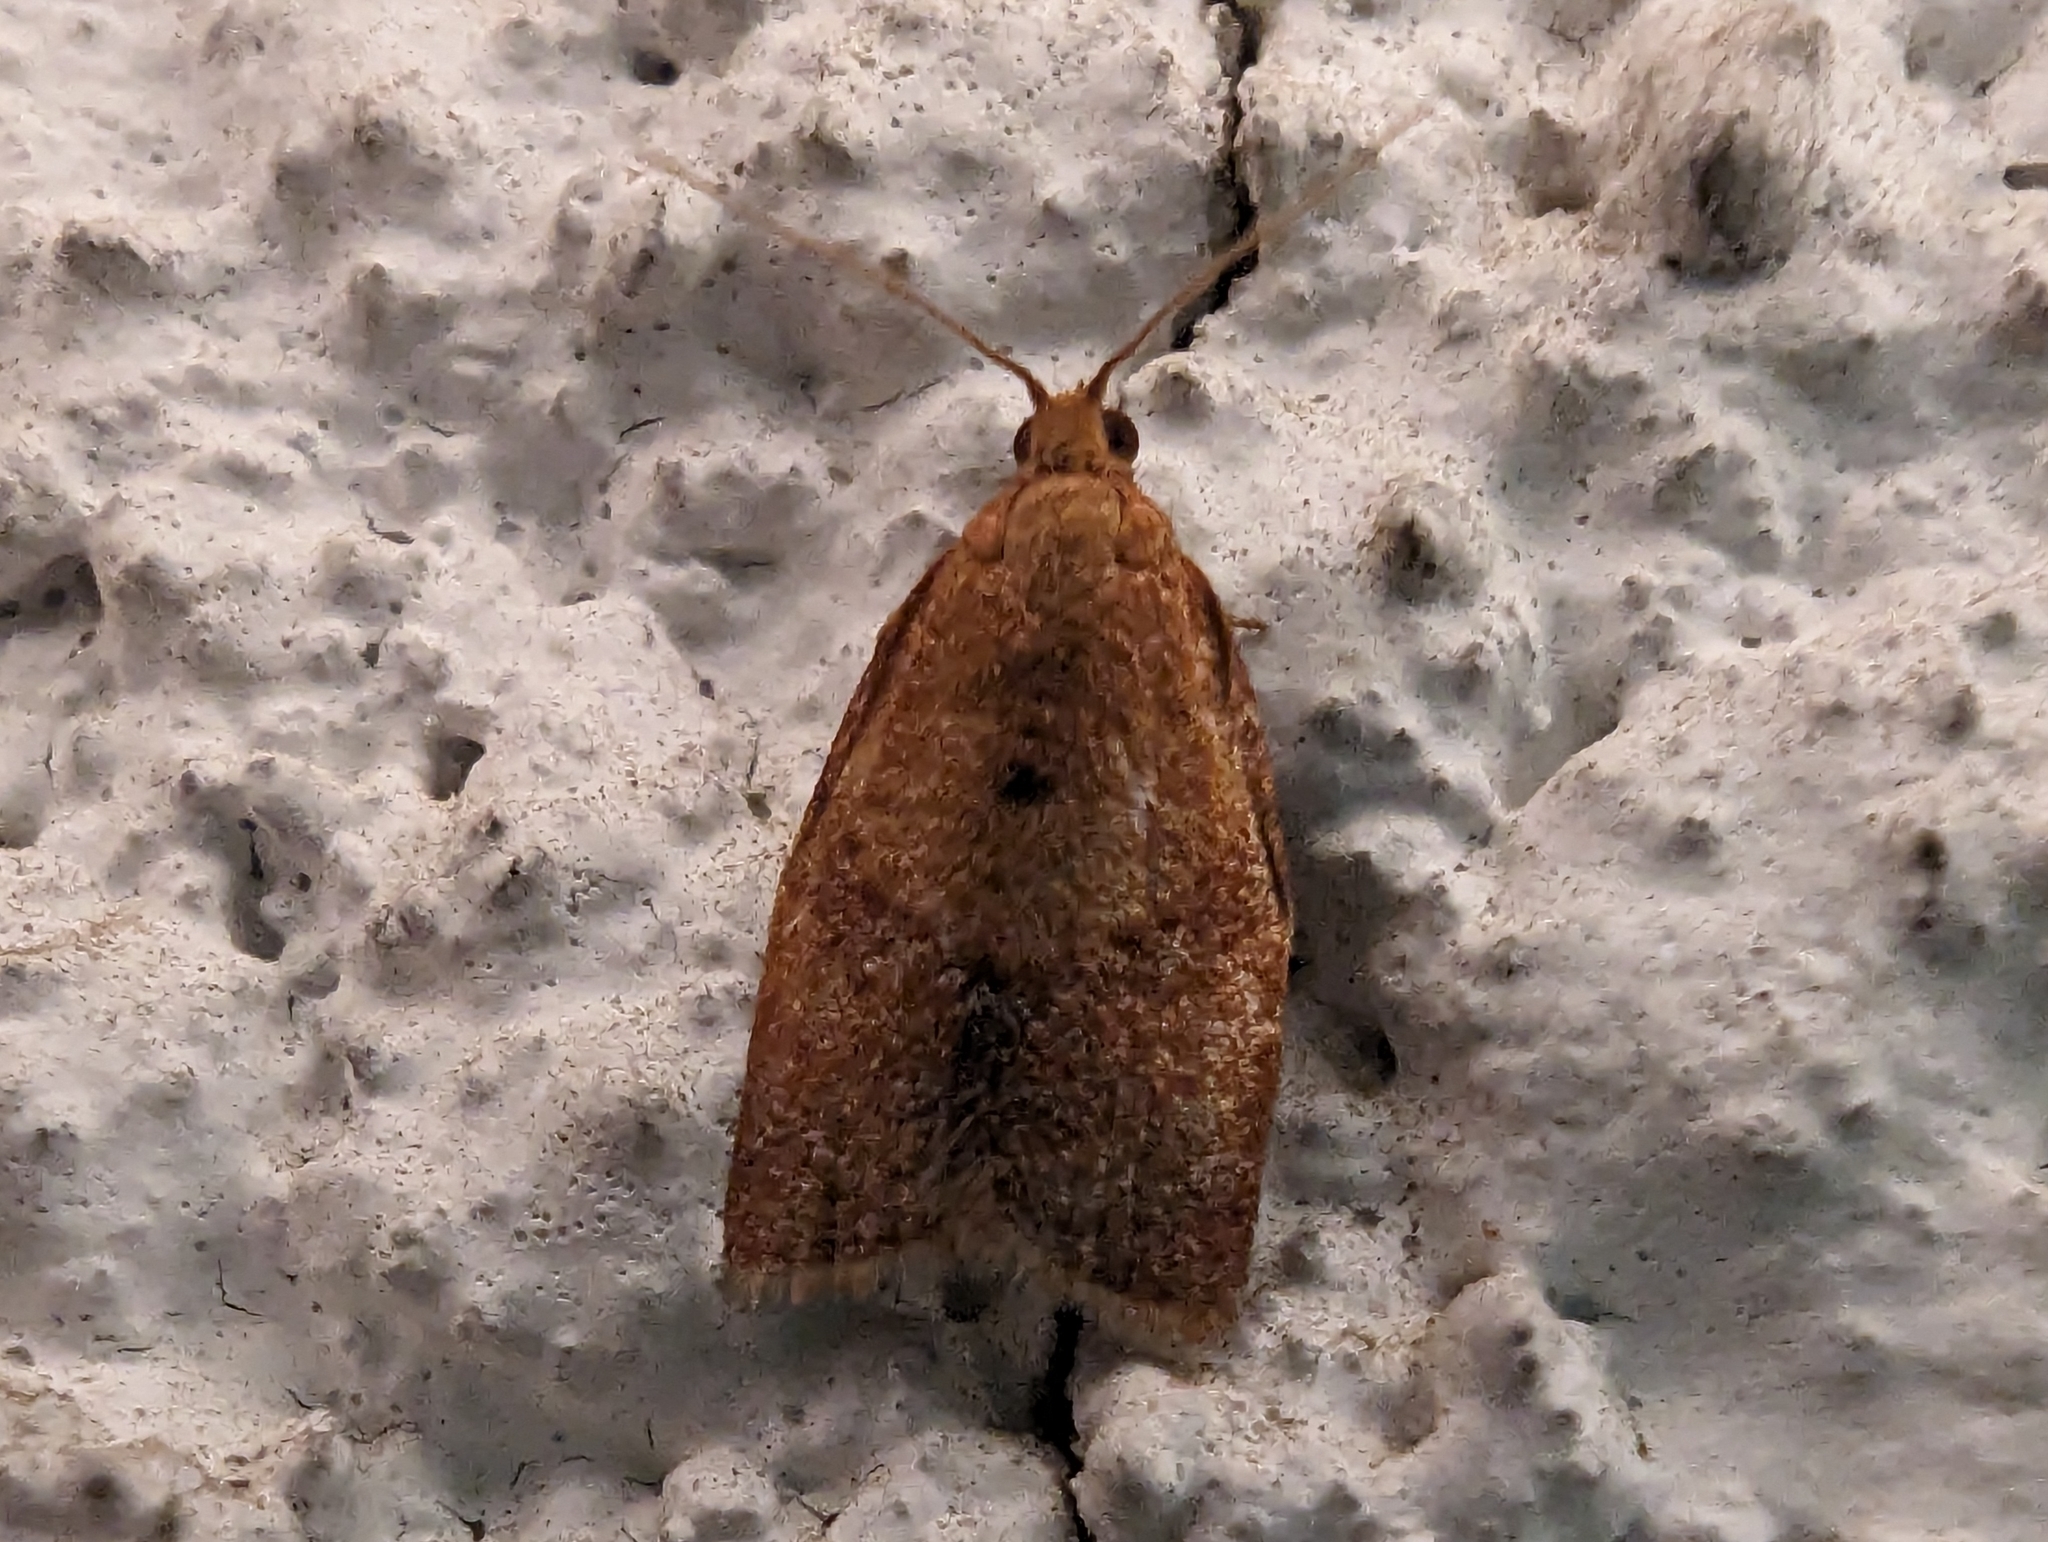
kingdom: Animalia
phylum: Arthropoda
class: Insecta
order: Lepidoptera
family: Tortricidae
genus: Clepsis
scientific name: Clepsis consimilana
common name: Privet tortrix
